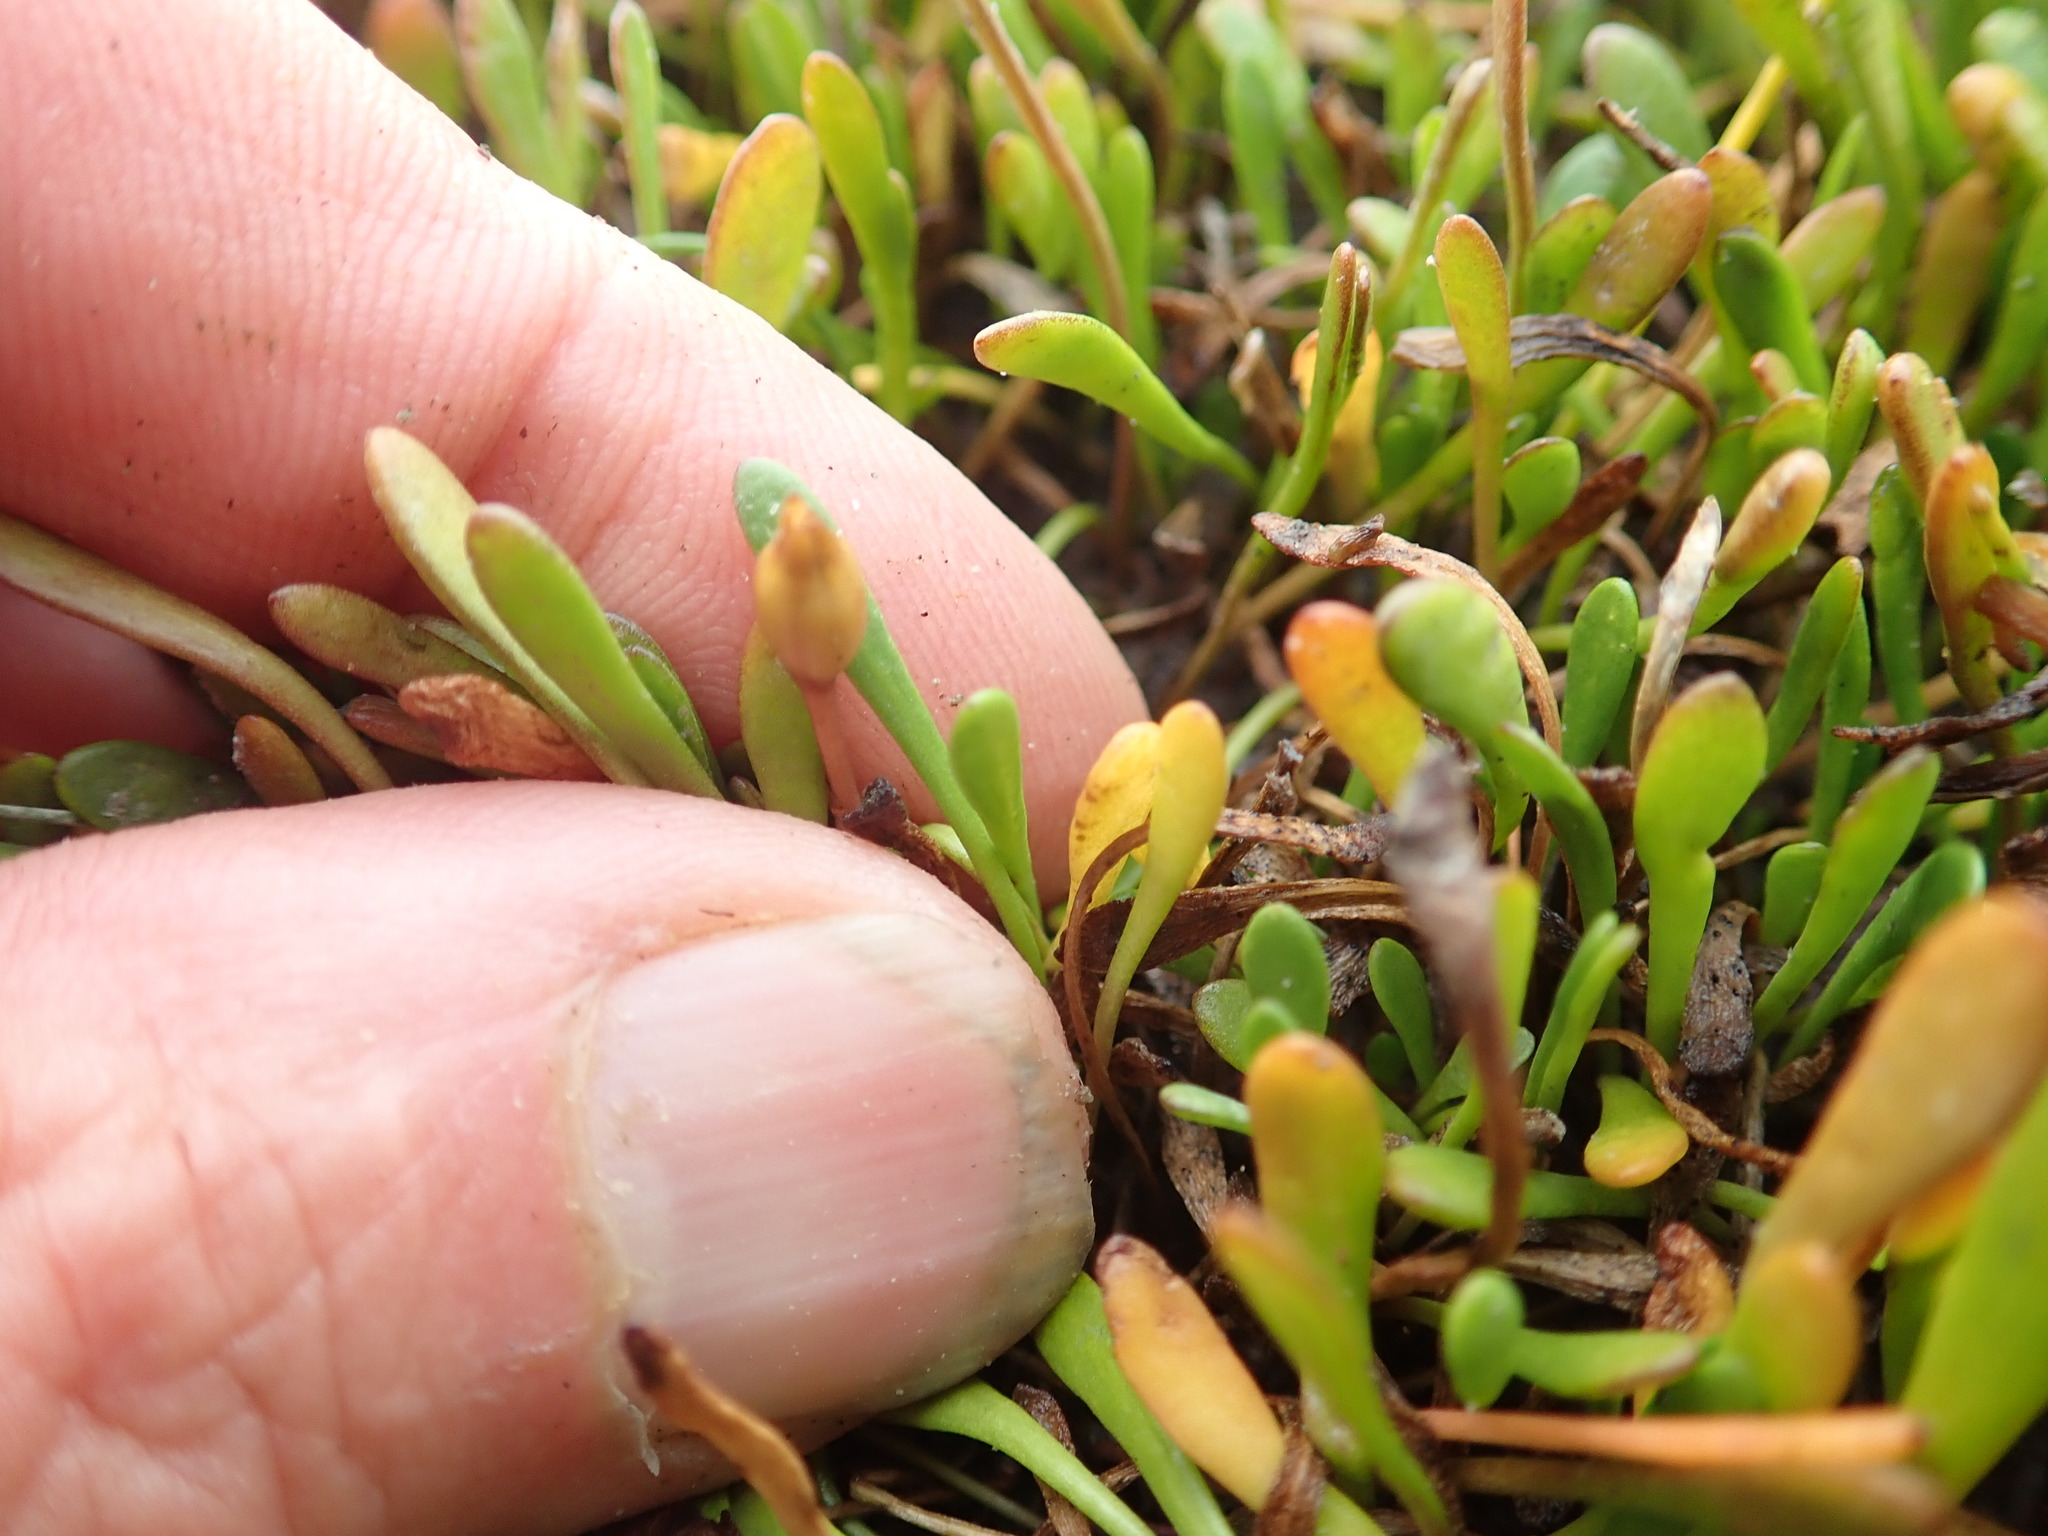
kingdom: Plantae
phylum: Tracheophyta
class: Magnoliopsida
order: Asterales
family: Goodeniaceae
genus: Goodenia
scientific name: Goodenia radicans
